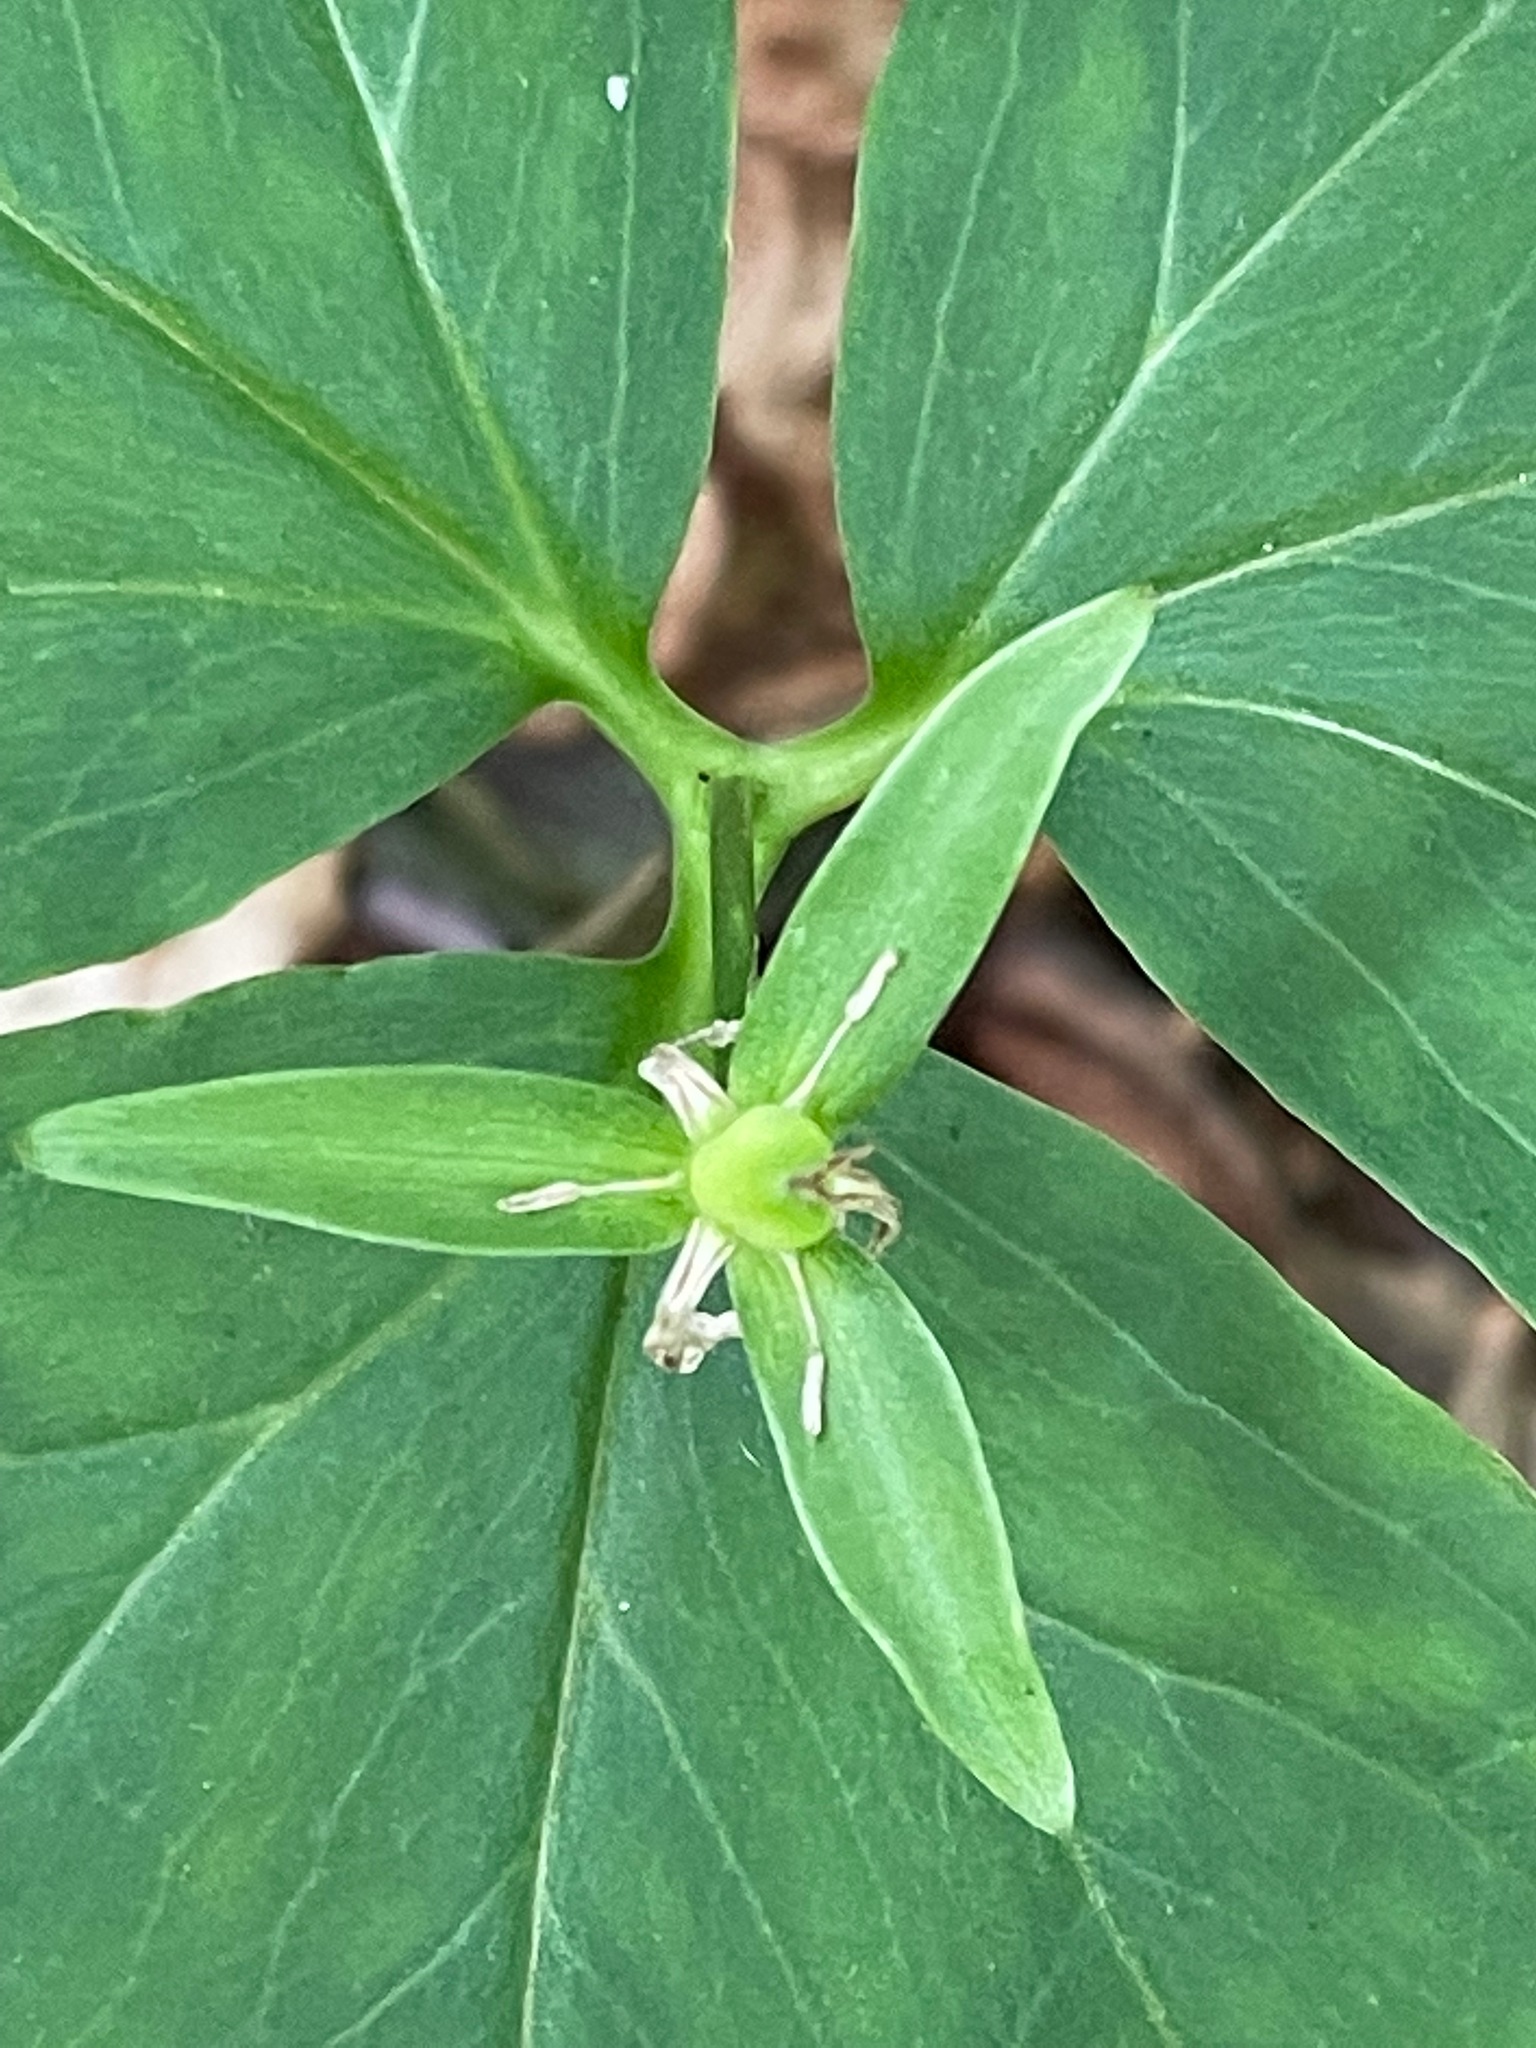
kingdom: Plantae
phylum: Tracheophyta
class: Liliopsida
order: Liliales
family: Melanthiaceae
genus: Trillium
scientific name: Trillium undulatum
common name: Paint trillium
